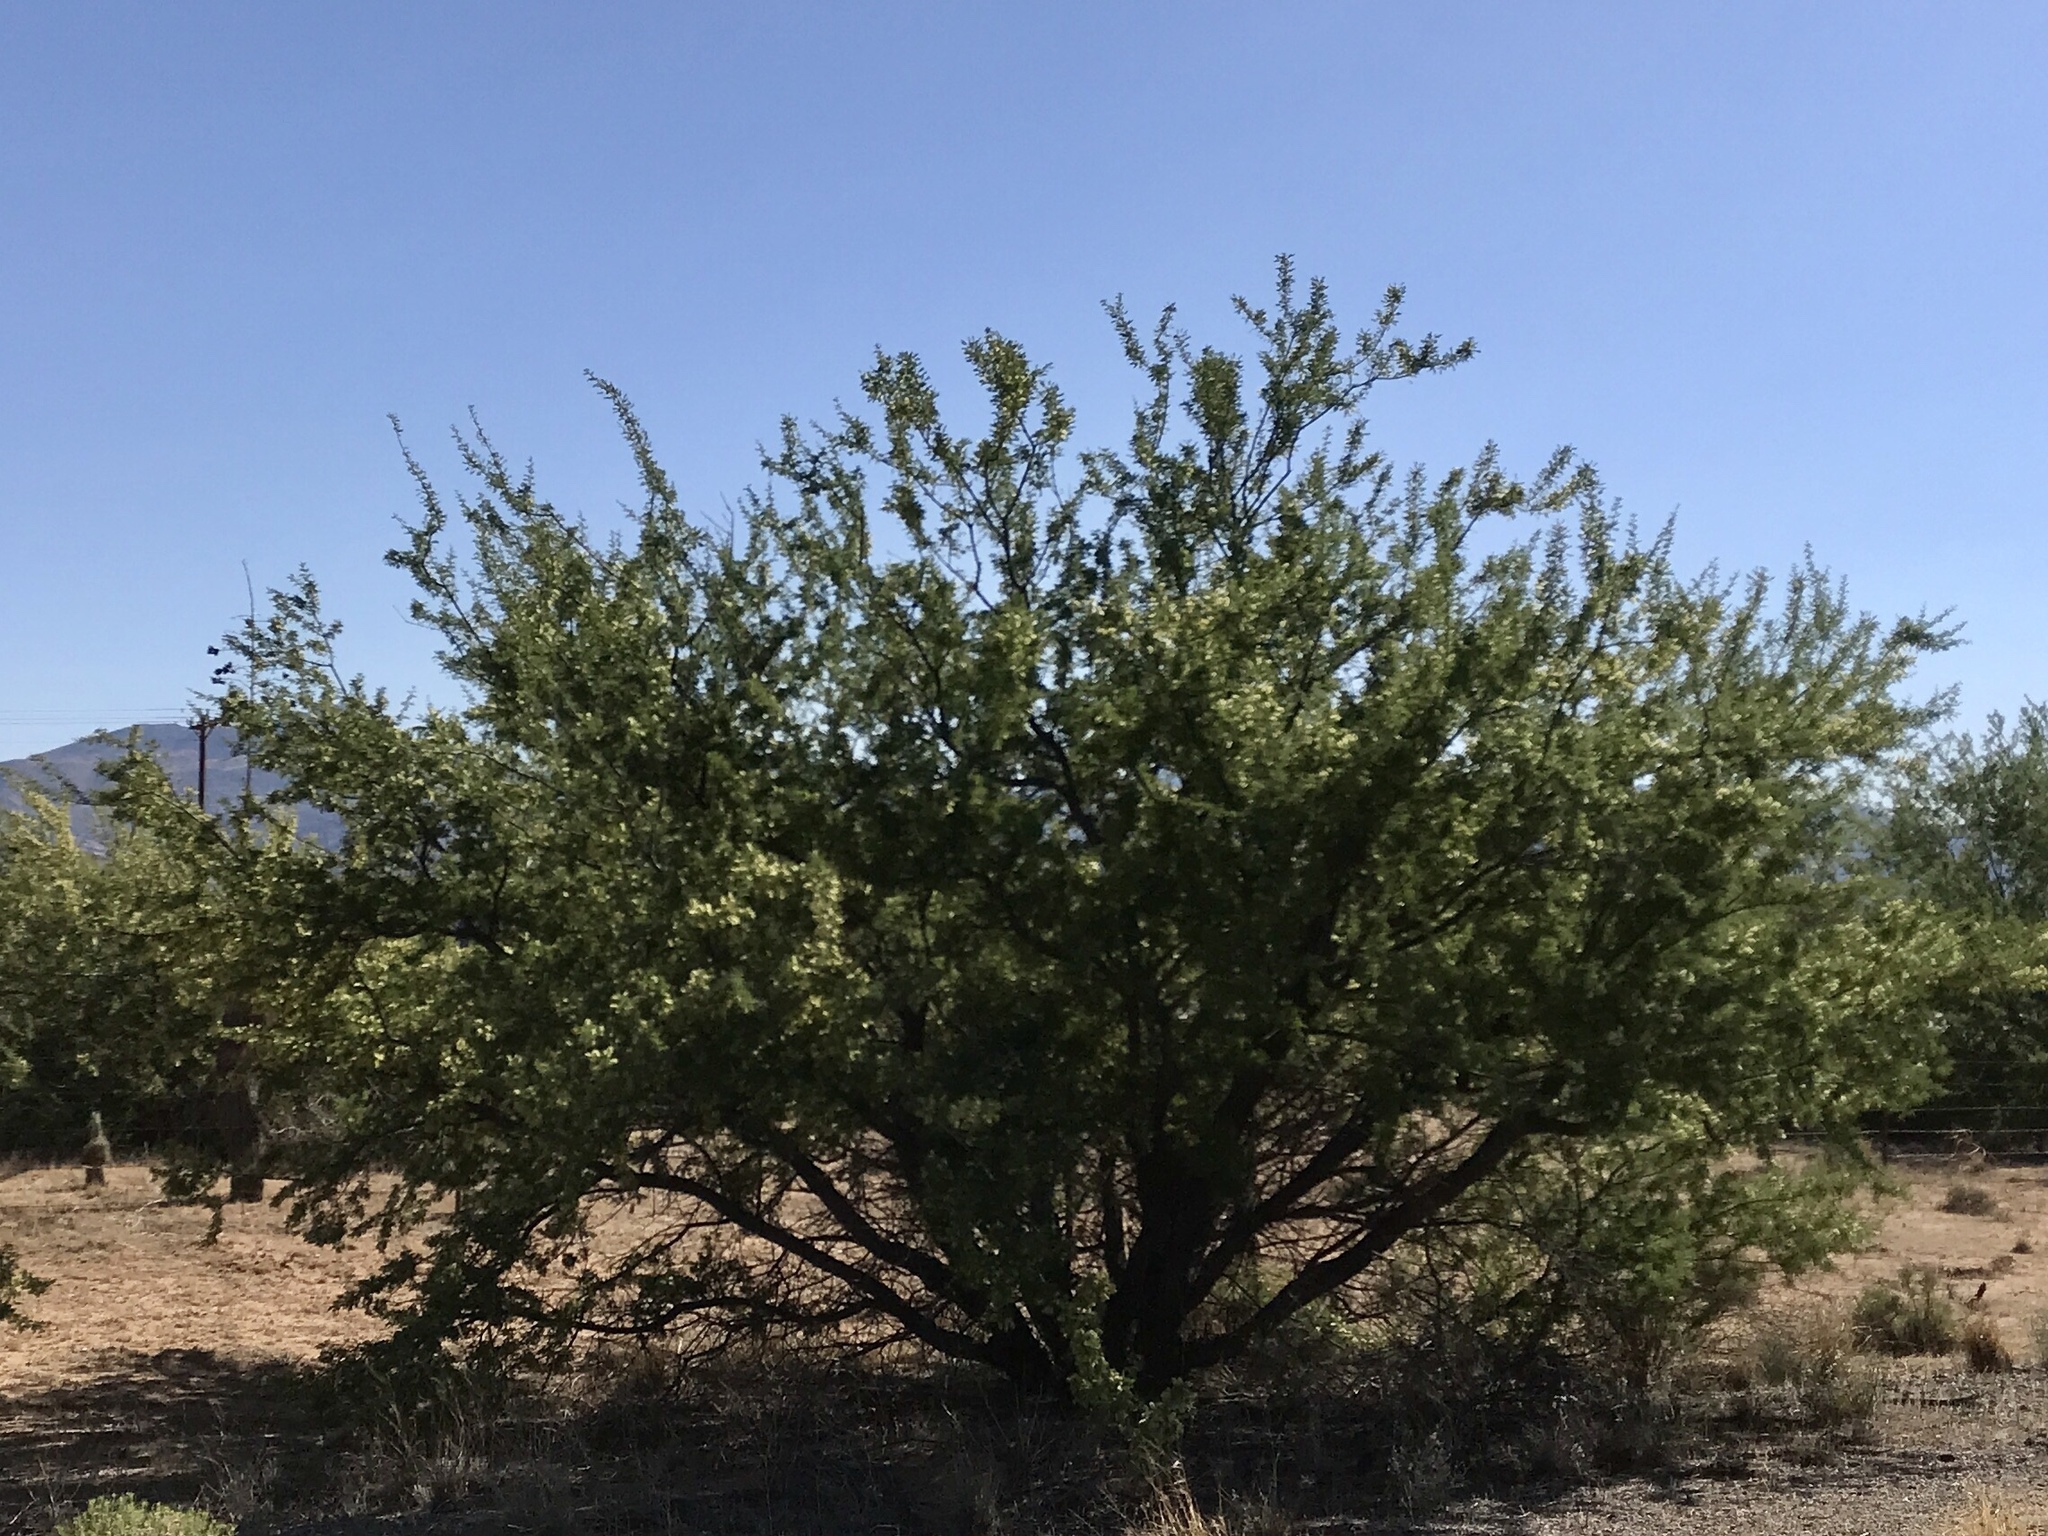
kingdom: Plantae
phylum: Tracheophyta
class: Magnoliopsida
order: Fabales
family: Fabaceae
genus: Senegalia
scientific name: Senegalia greggii
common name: Texas-mimosa
